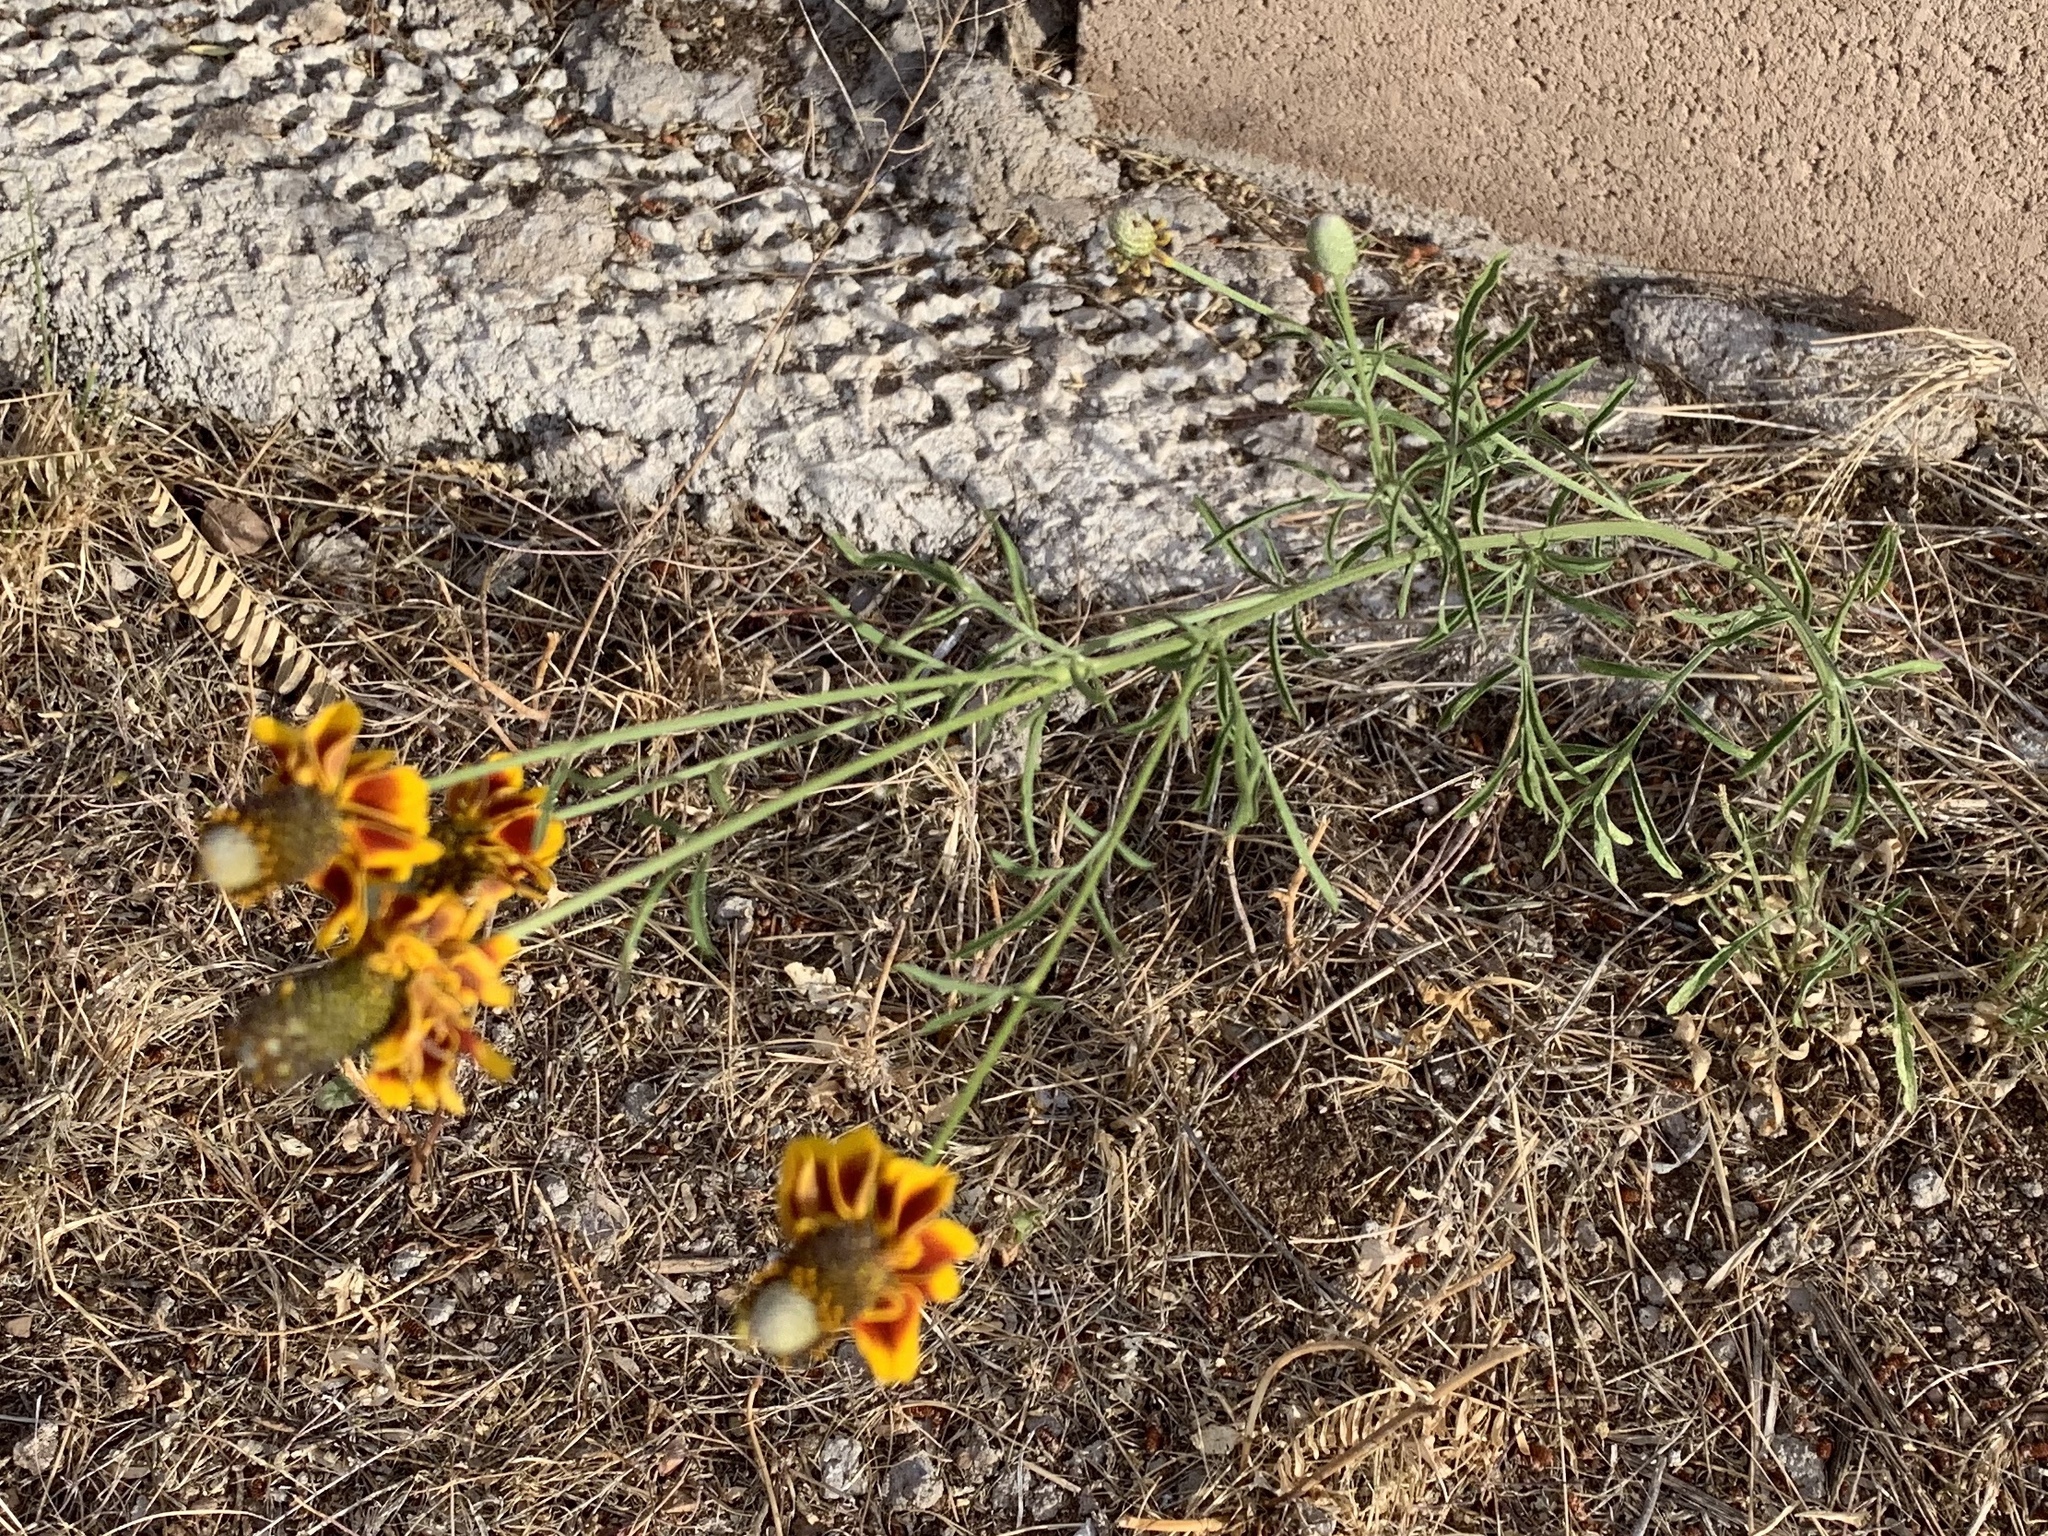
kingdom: Plantae
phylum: Tracheophyta
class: Magnoliopsida
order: Asterales
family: Asteraceae
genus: Ratibida
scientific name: Ratibida columnifera
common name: Prairie coneflower
